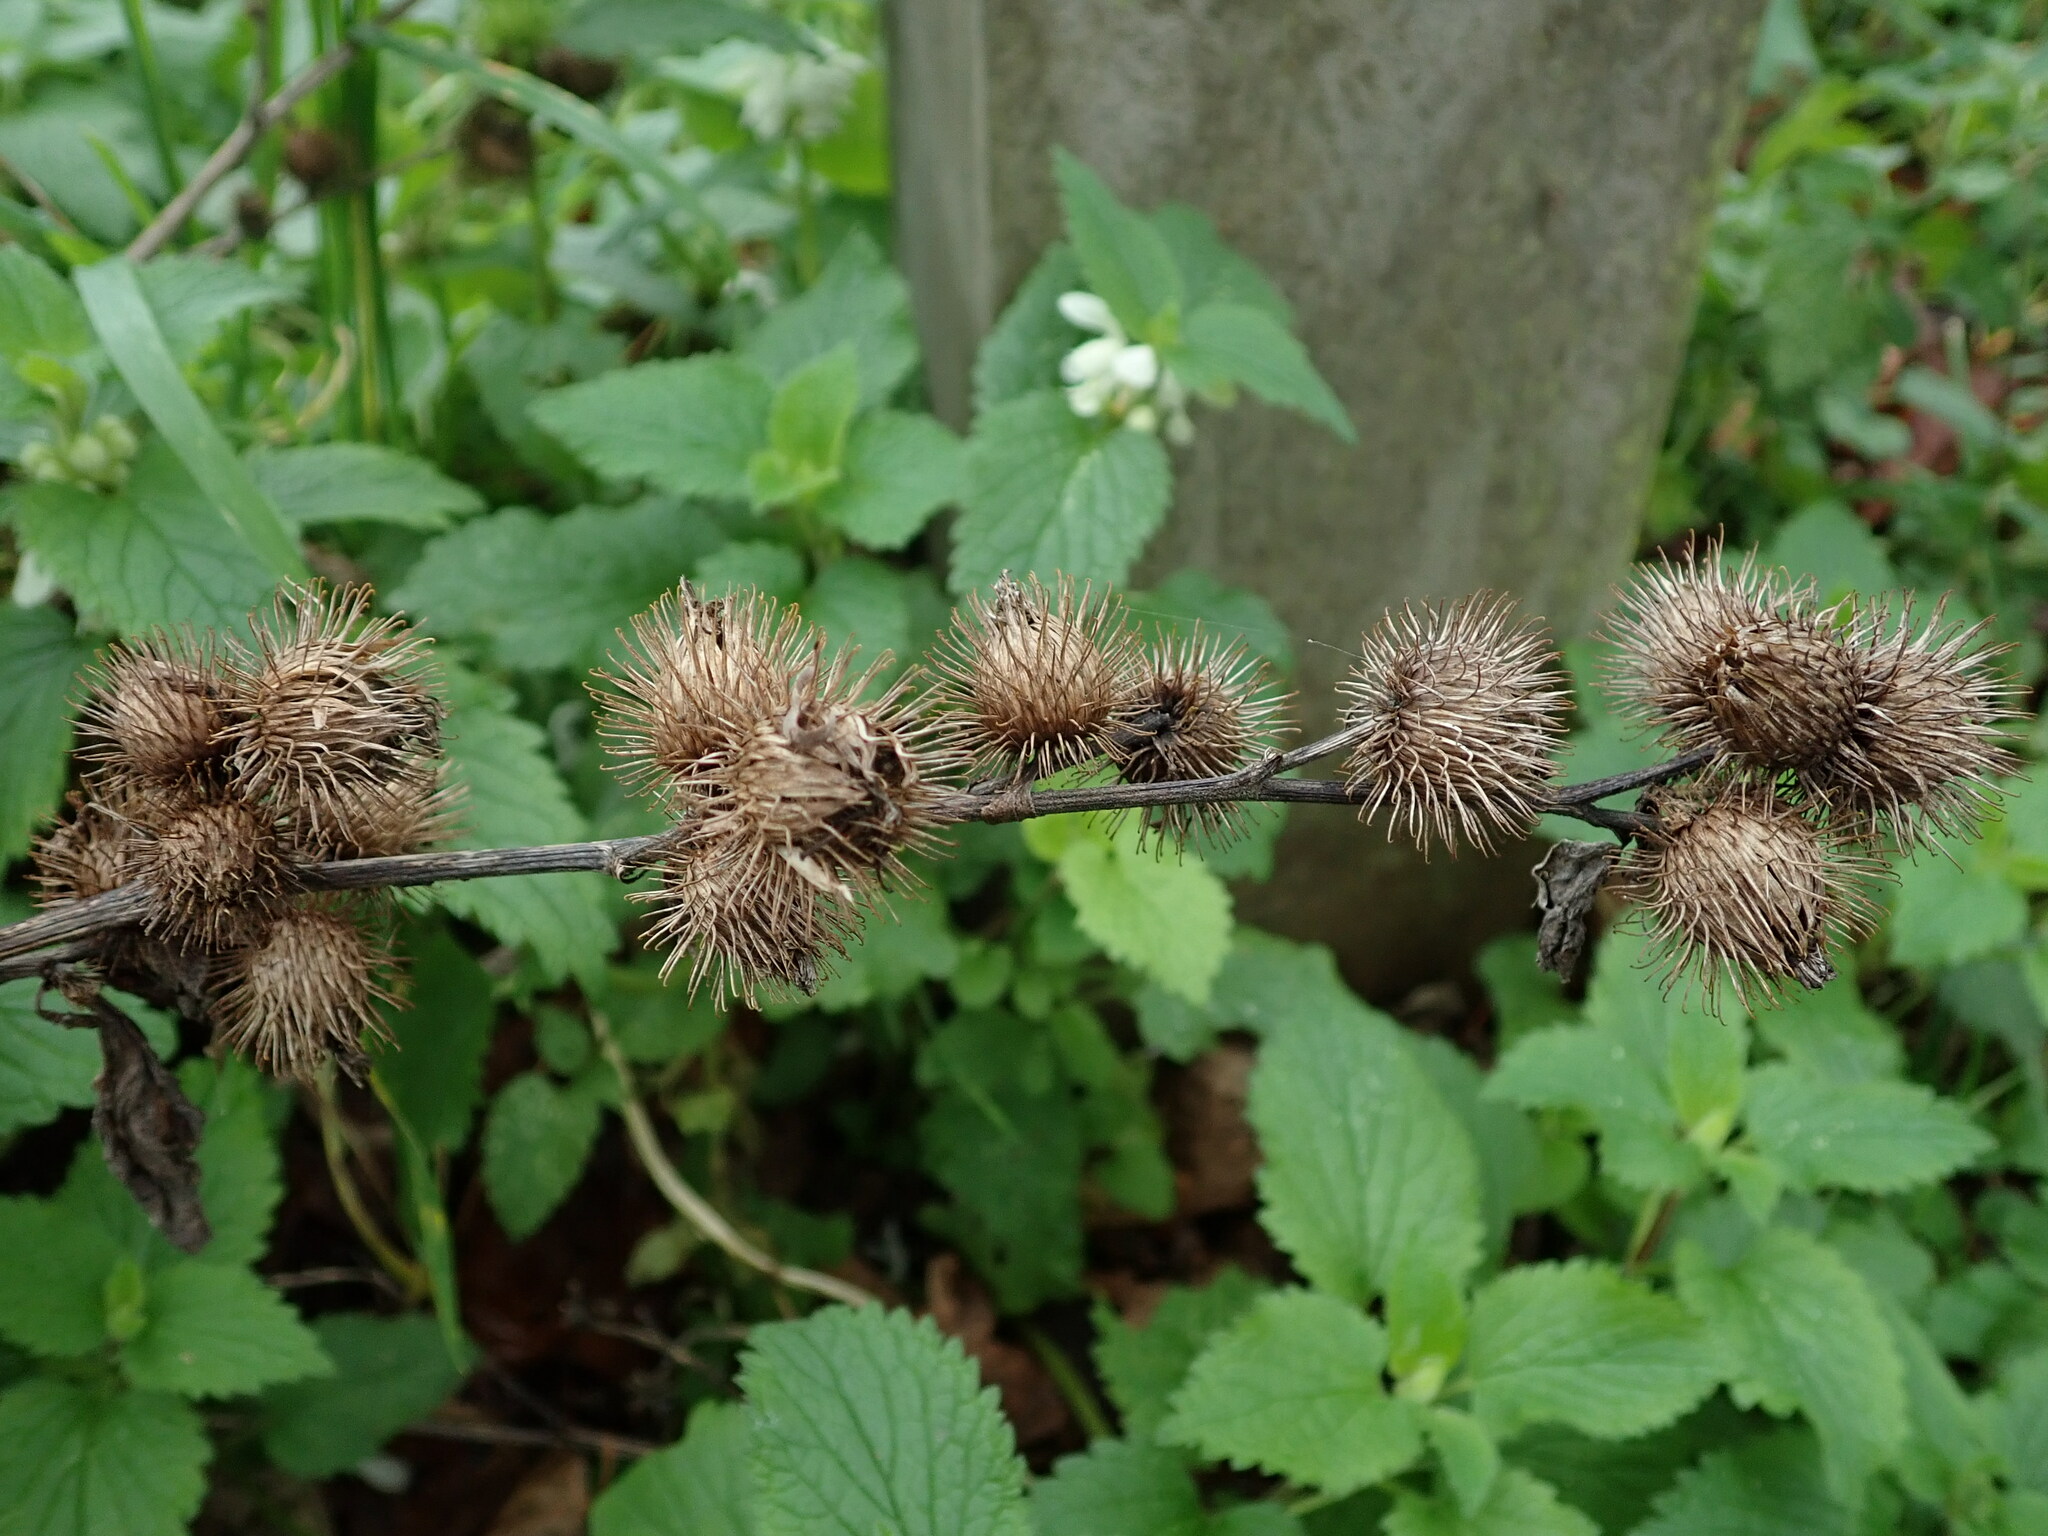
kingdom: Plantae
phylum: Tracheophyta
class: Magnoliopsida
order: Asterales
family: Asteraceae
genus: Arctium
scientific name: Arctium minus
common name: Lesser burdock
